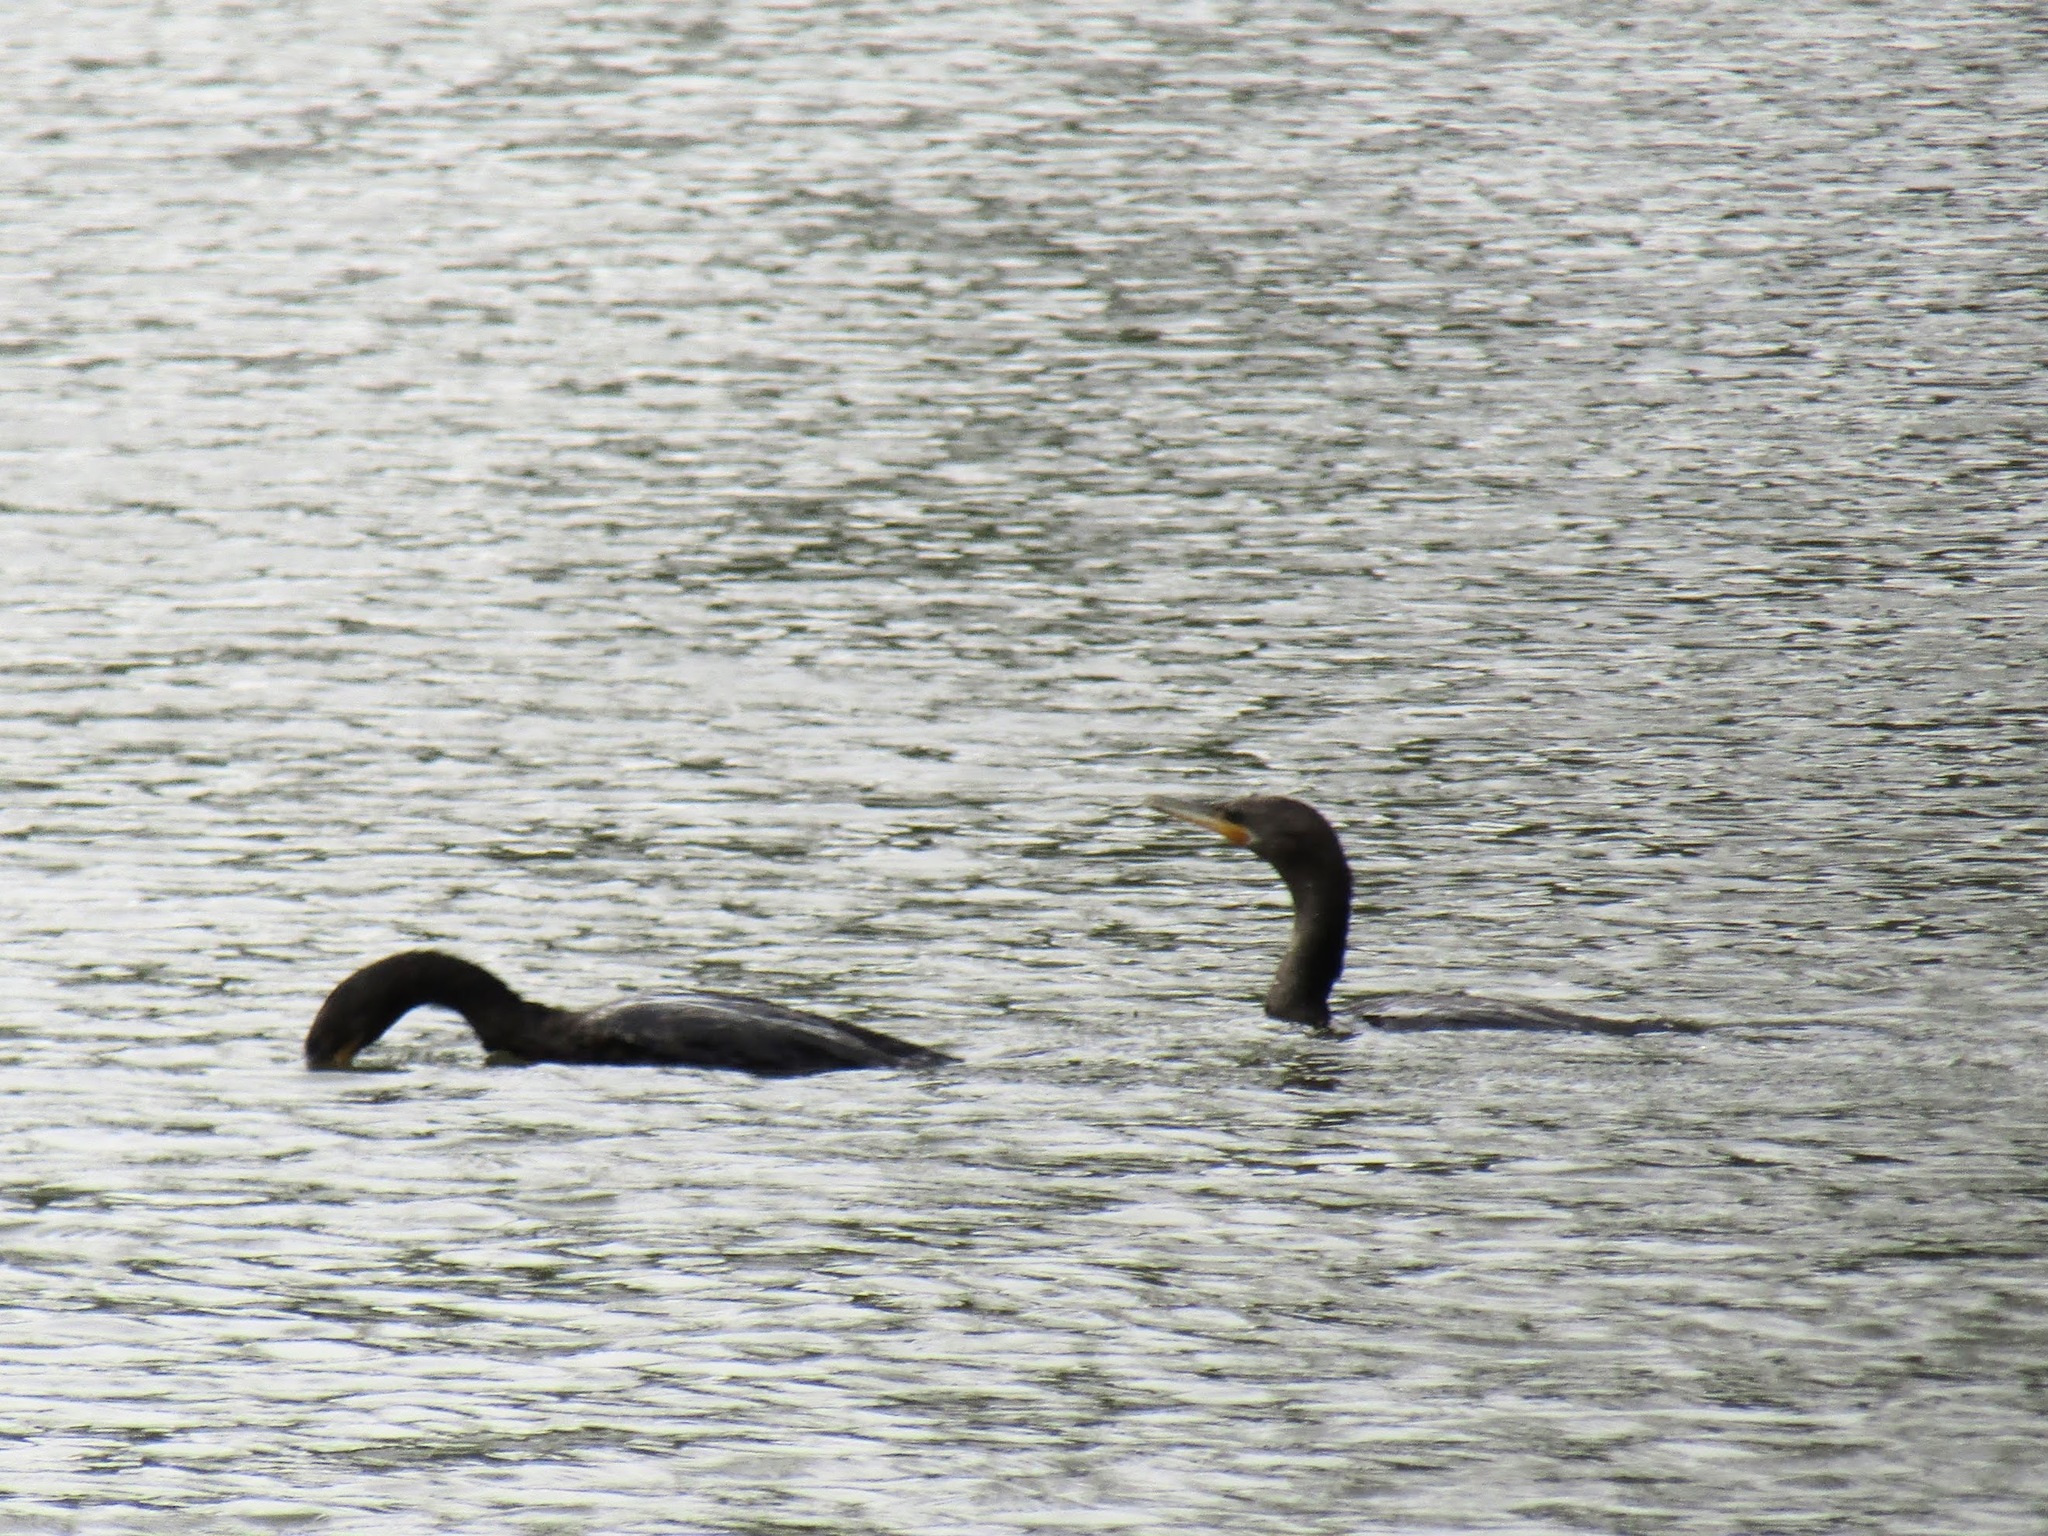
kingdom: Animalia
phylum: Chordata
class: Aves
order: Suliformes
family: Phalacrocoracidae
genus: Phalacrocorax
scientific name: Phalacrocorax brasilianus
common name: Neotropic cormorant
